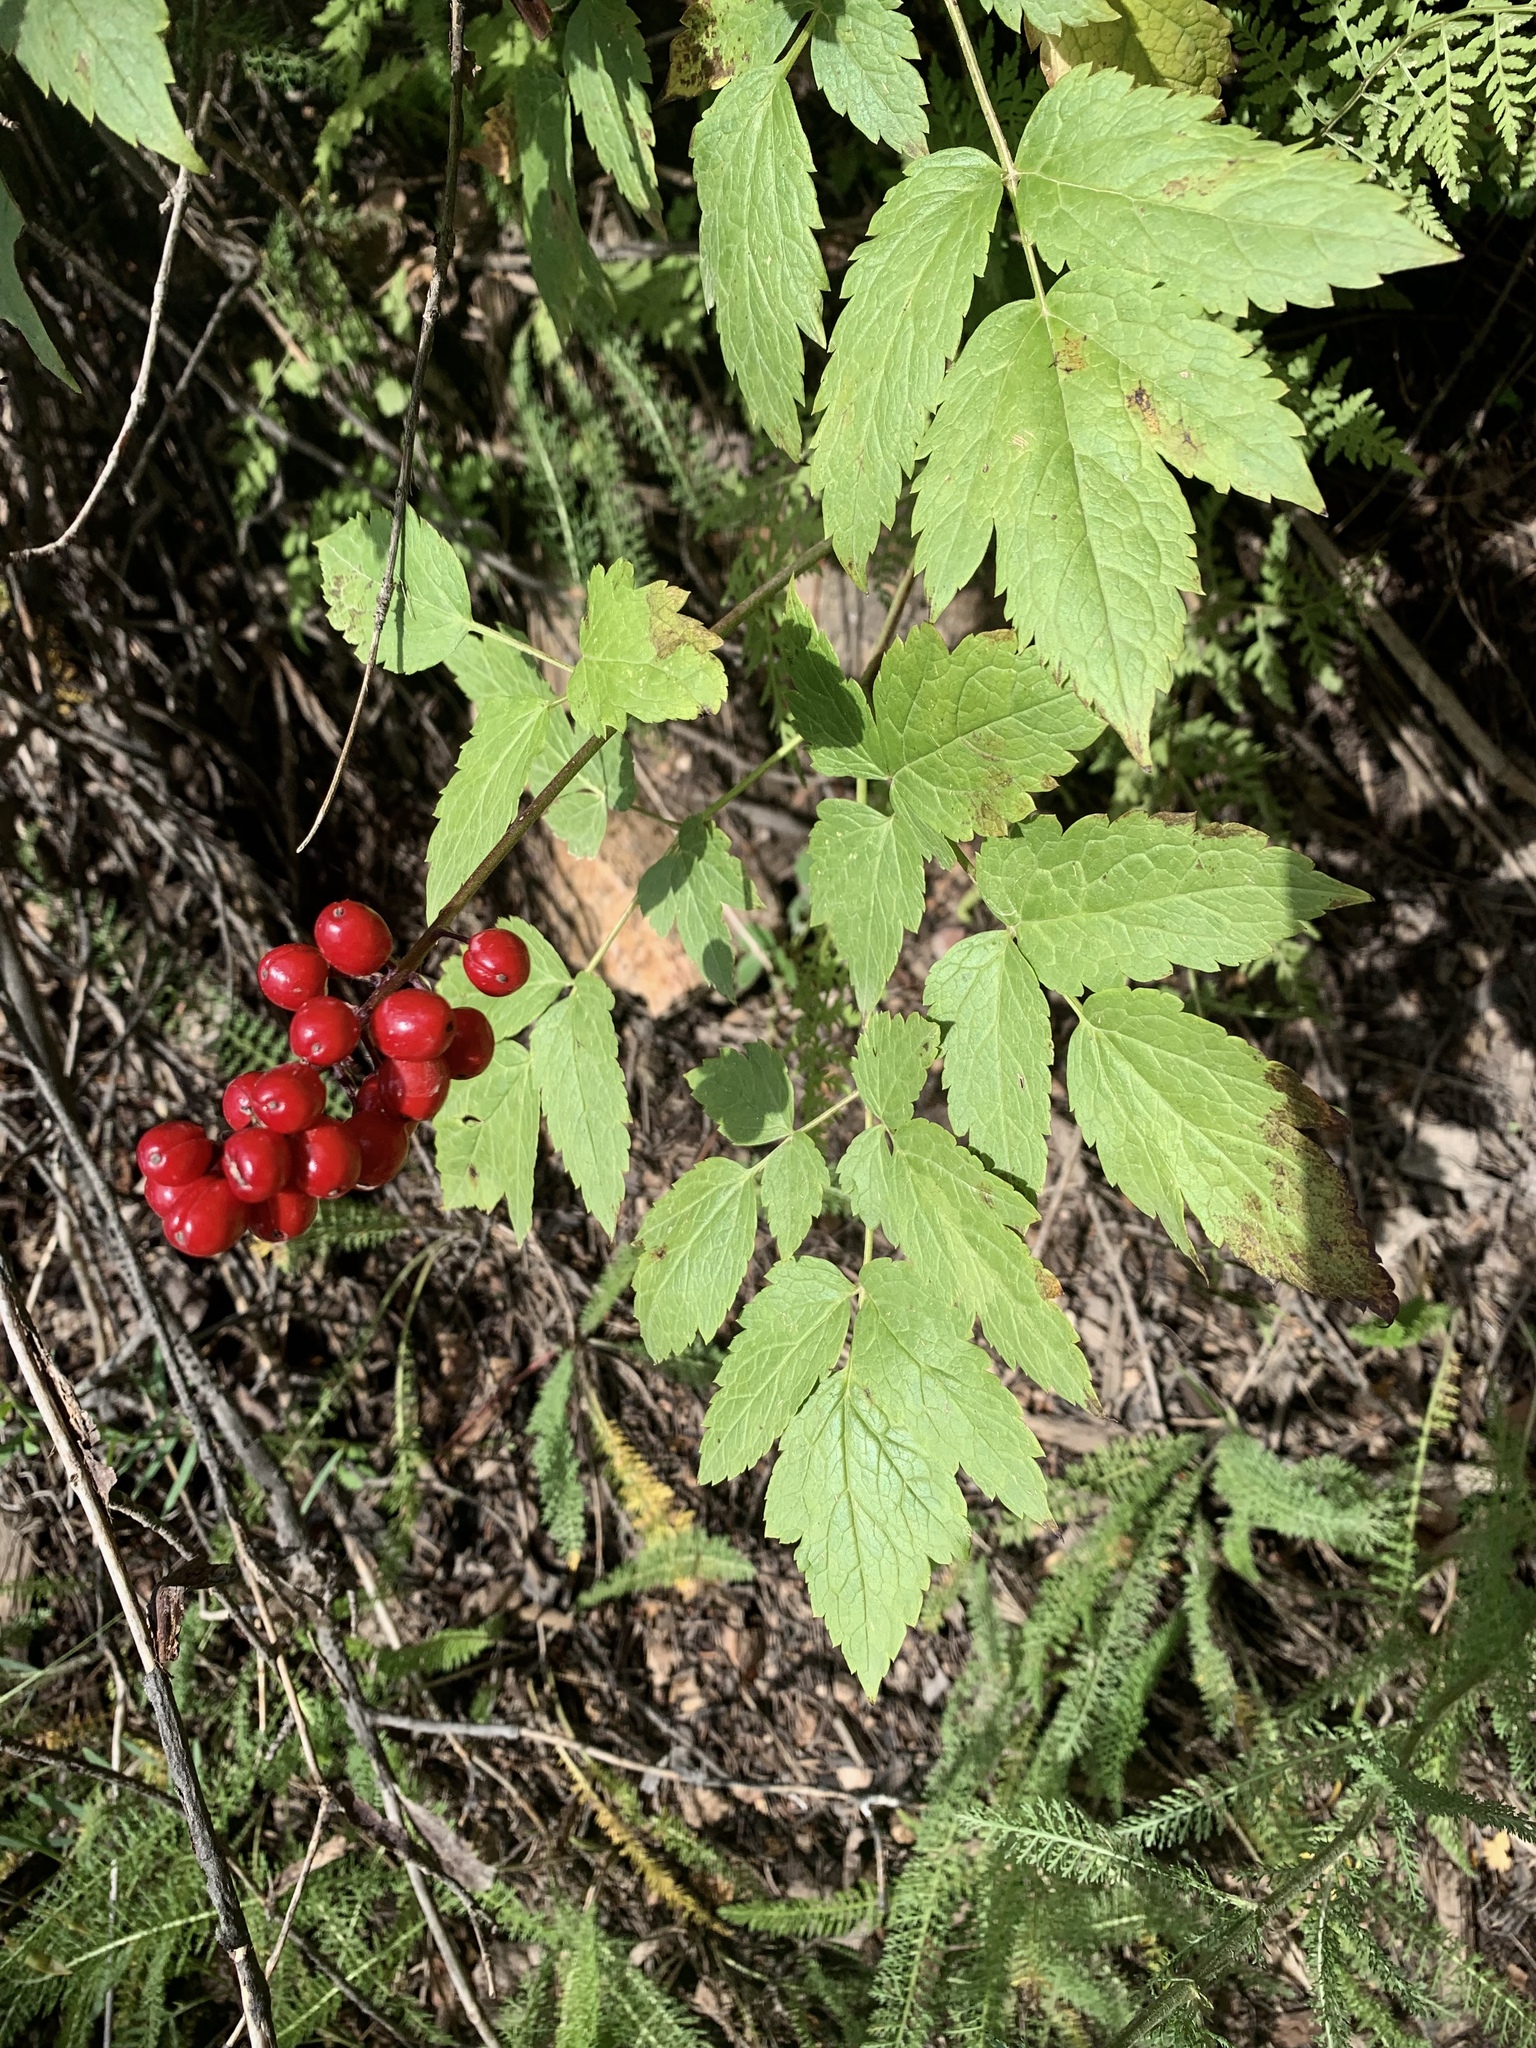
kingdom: Plantae
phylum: Tracheophyta
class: Magnoliopsida
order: Ranunculales
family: Ranunculaceae
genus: Actaea
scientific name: Actaea rubra
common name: Red baneberry
